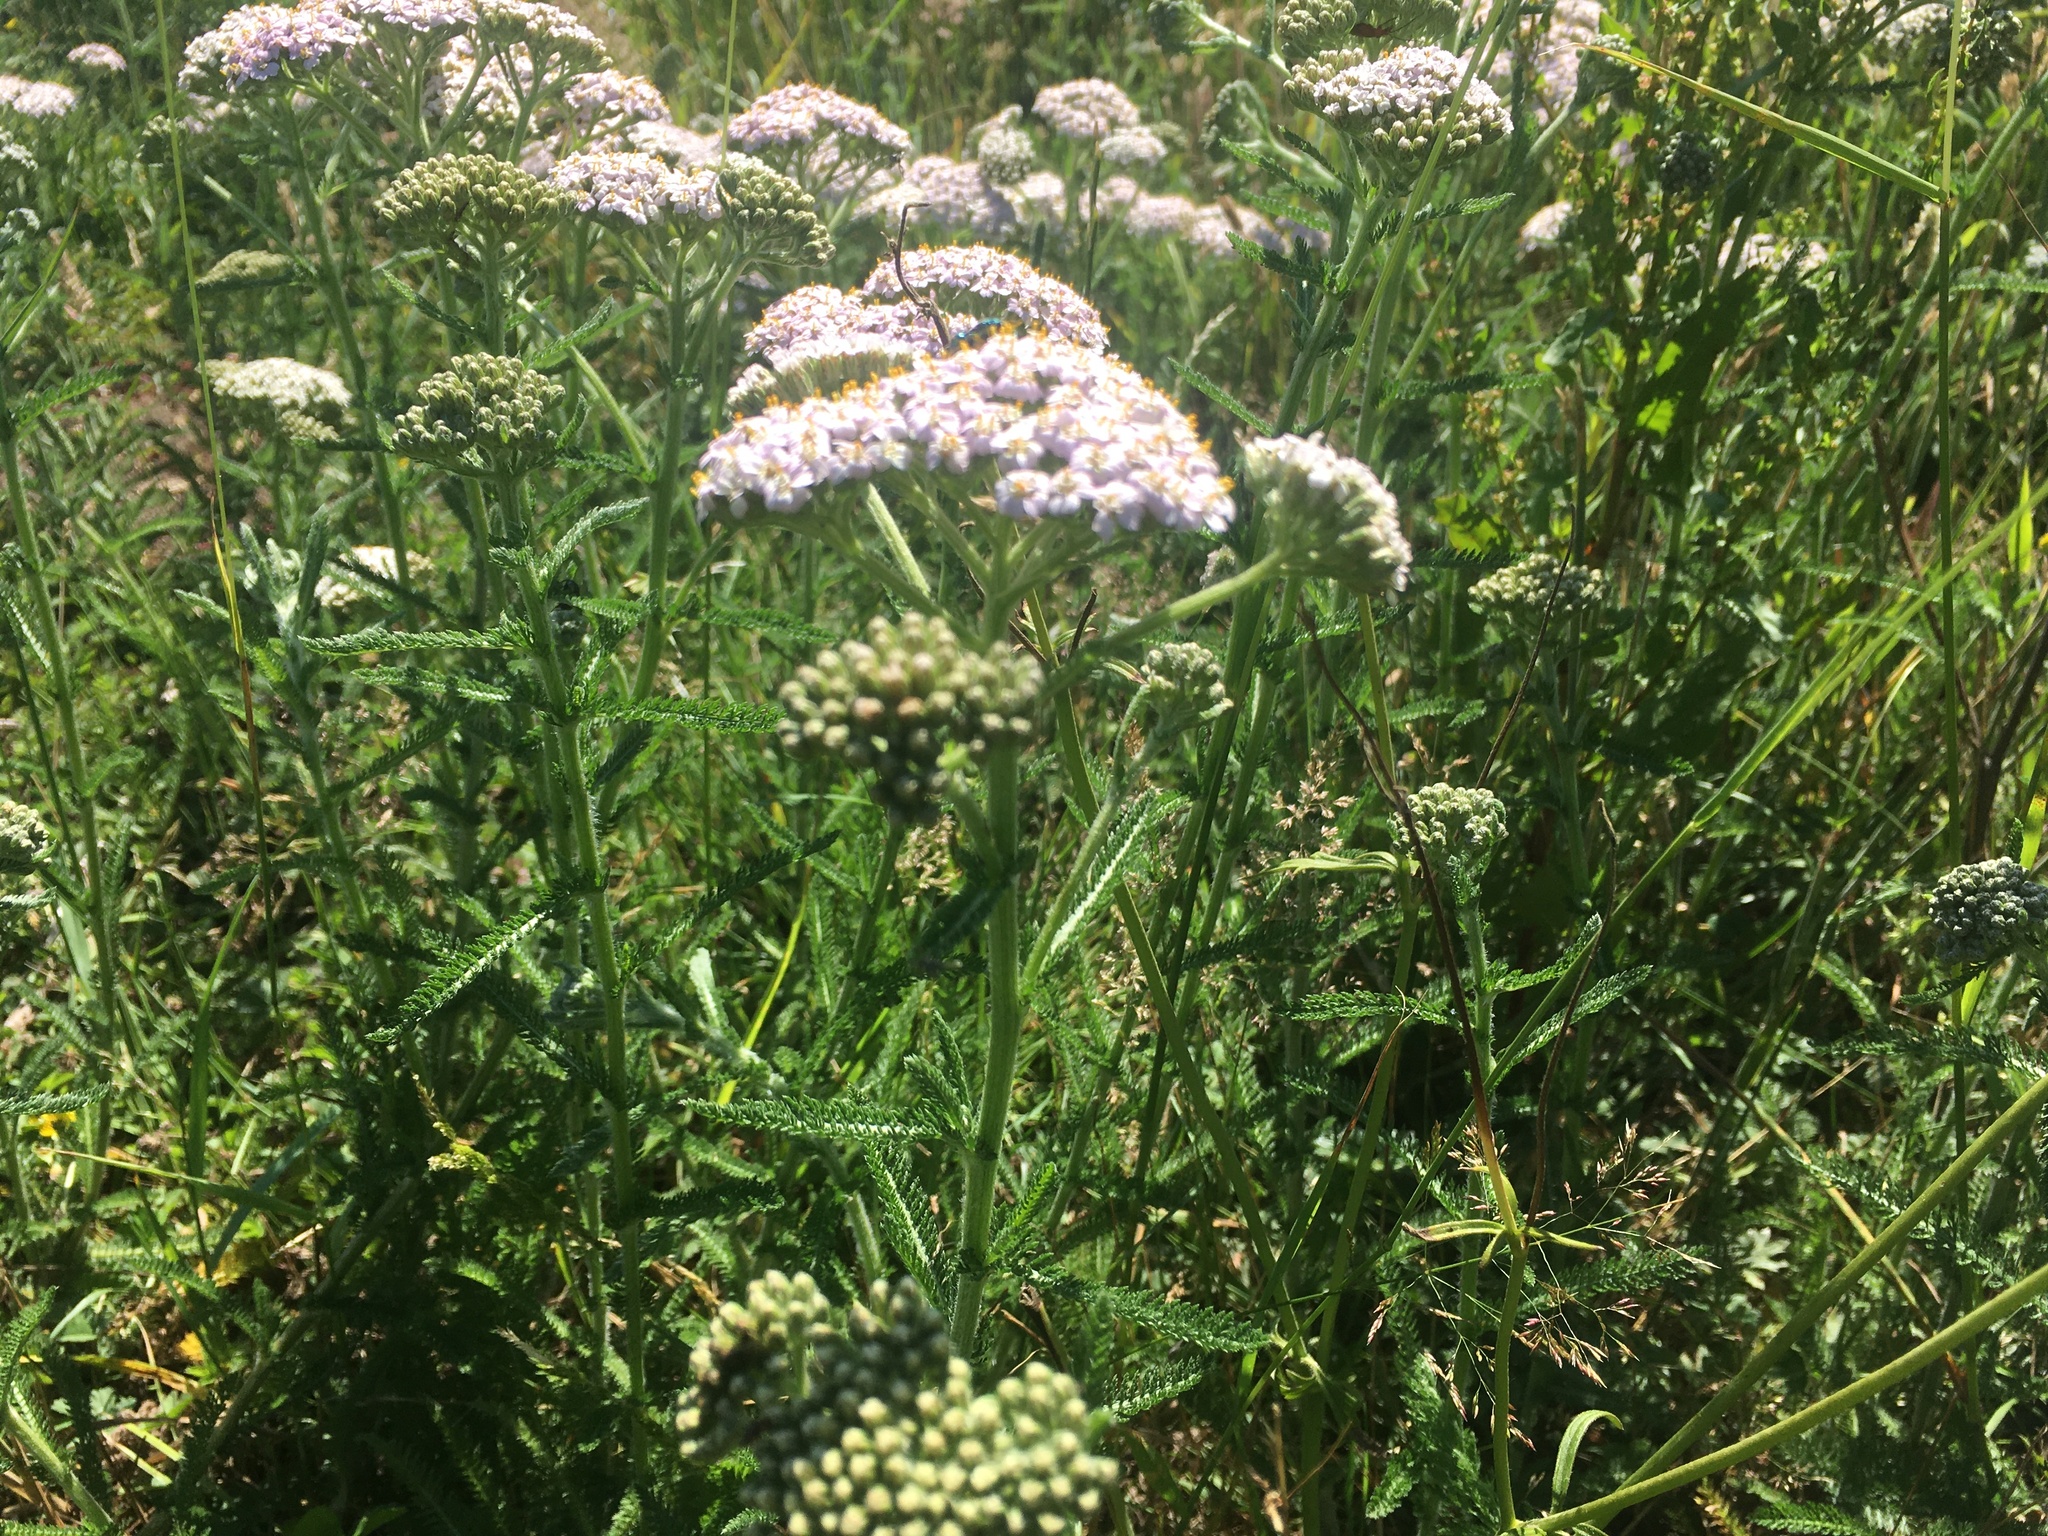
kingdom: Plantae
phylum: Tracheophyta
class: Magnoliopsida
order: Asterales
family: Asteraceae
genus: Achillea
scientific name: Achillea millefolium
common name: Yarrow
